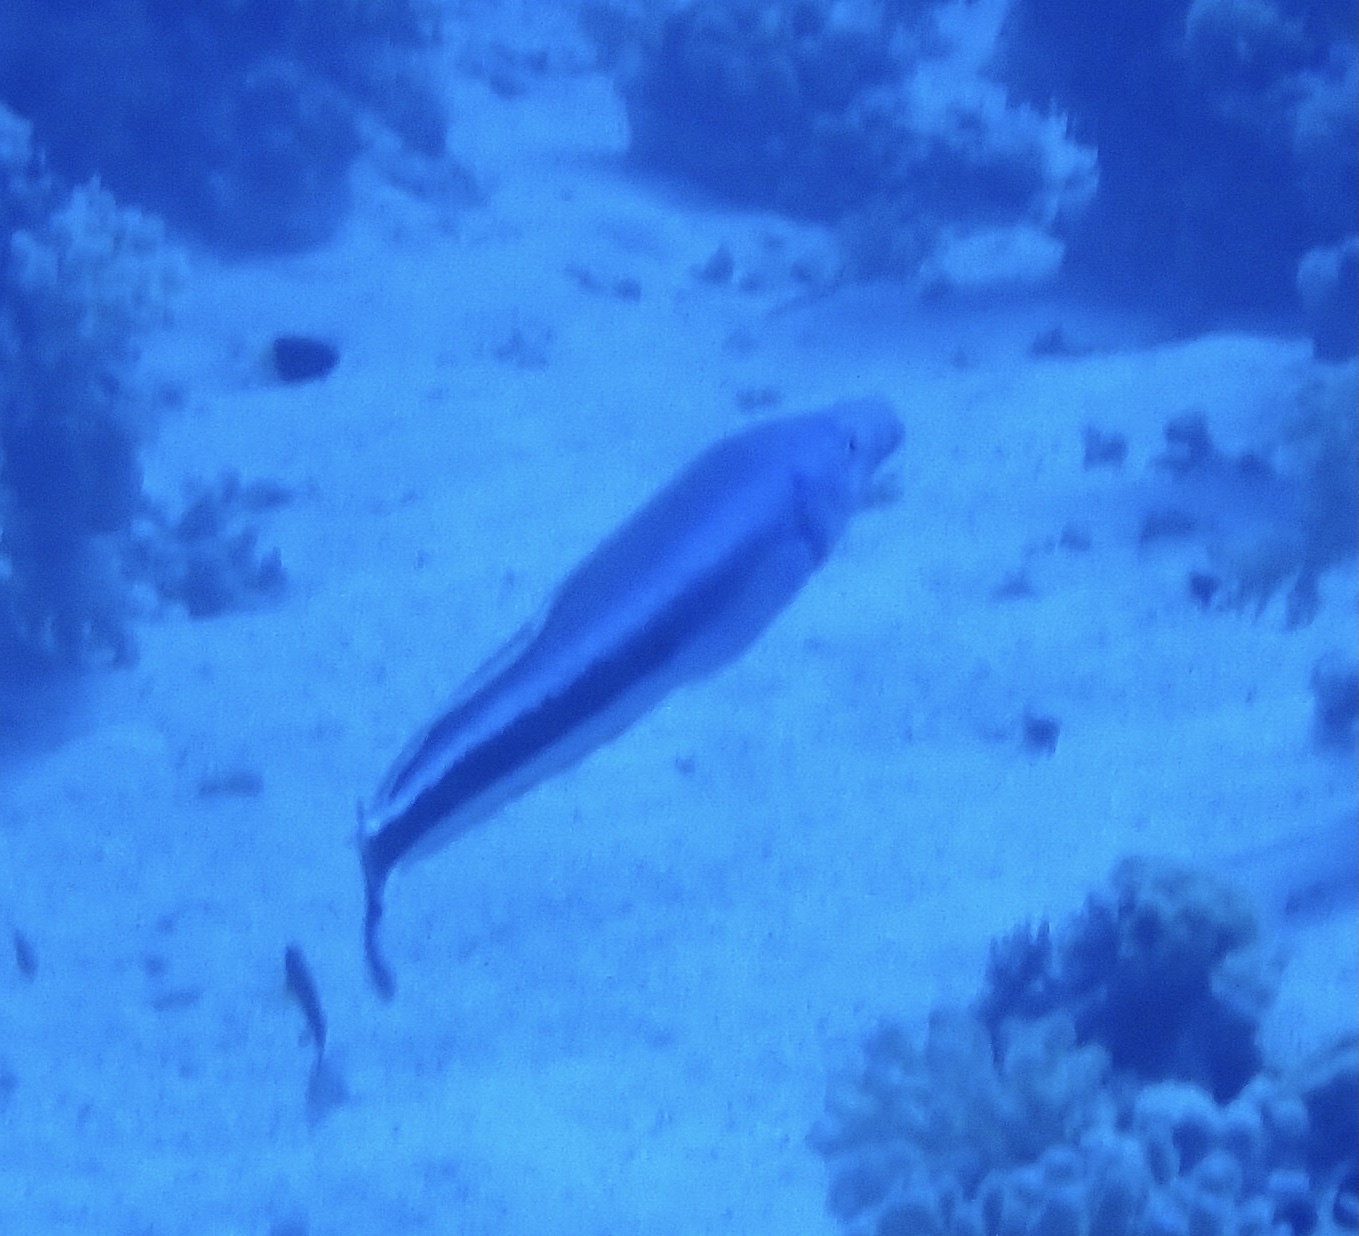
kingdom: Animalia
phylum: Chordata
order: Perciformes
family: Malacanthidae
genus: Malacanthus
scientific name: Malacanthus latovittatus
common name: Blue blanquillo
